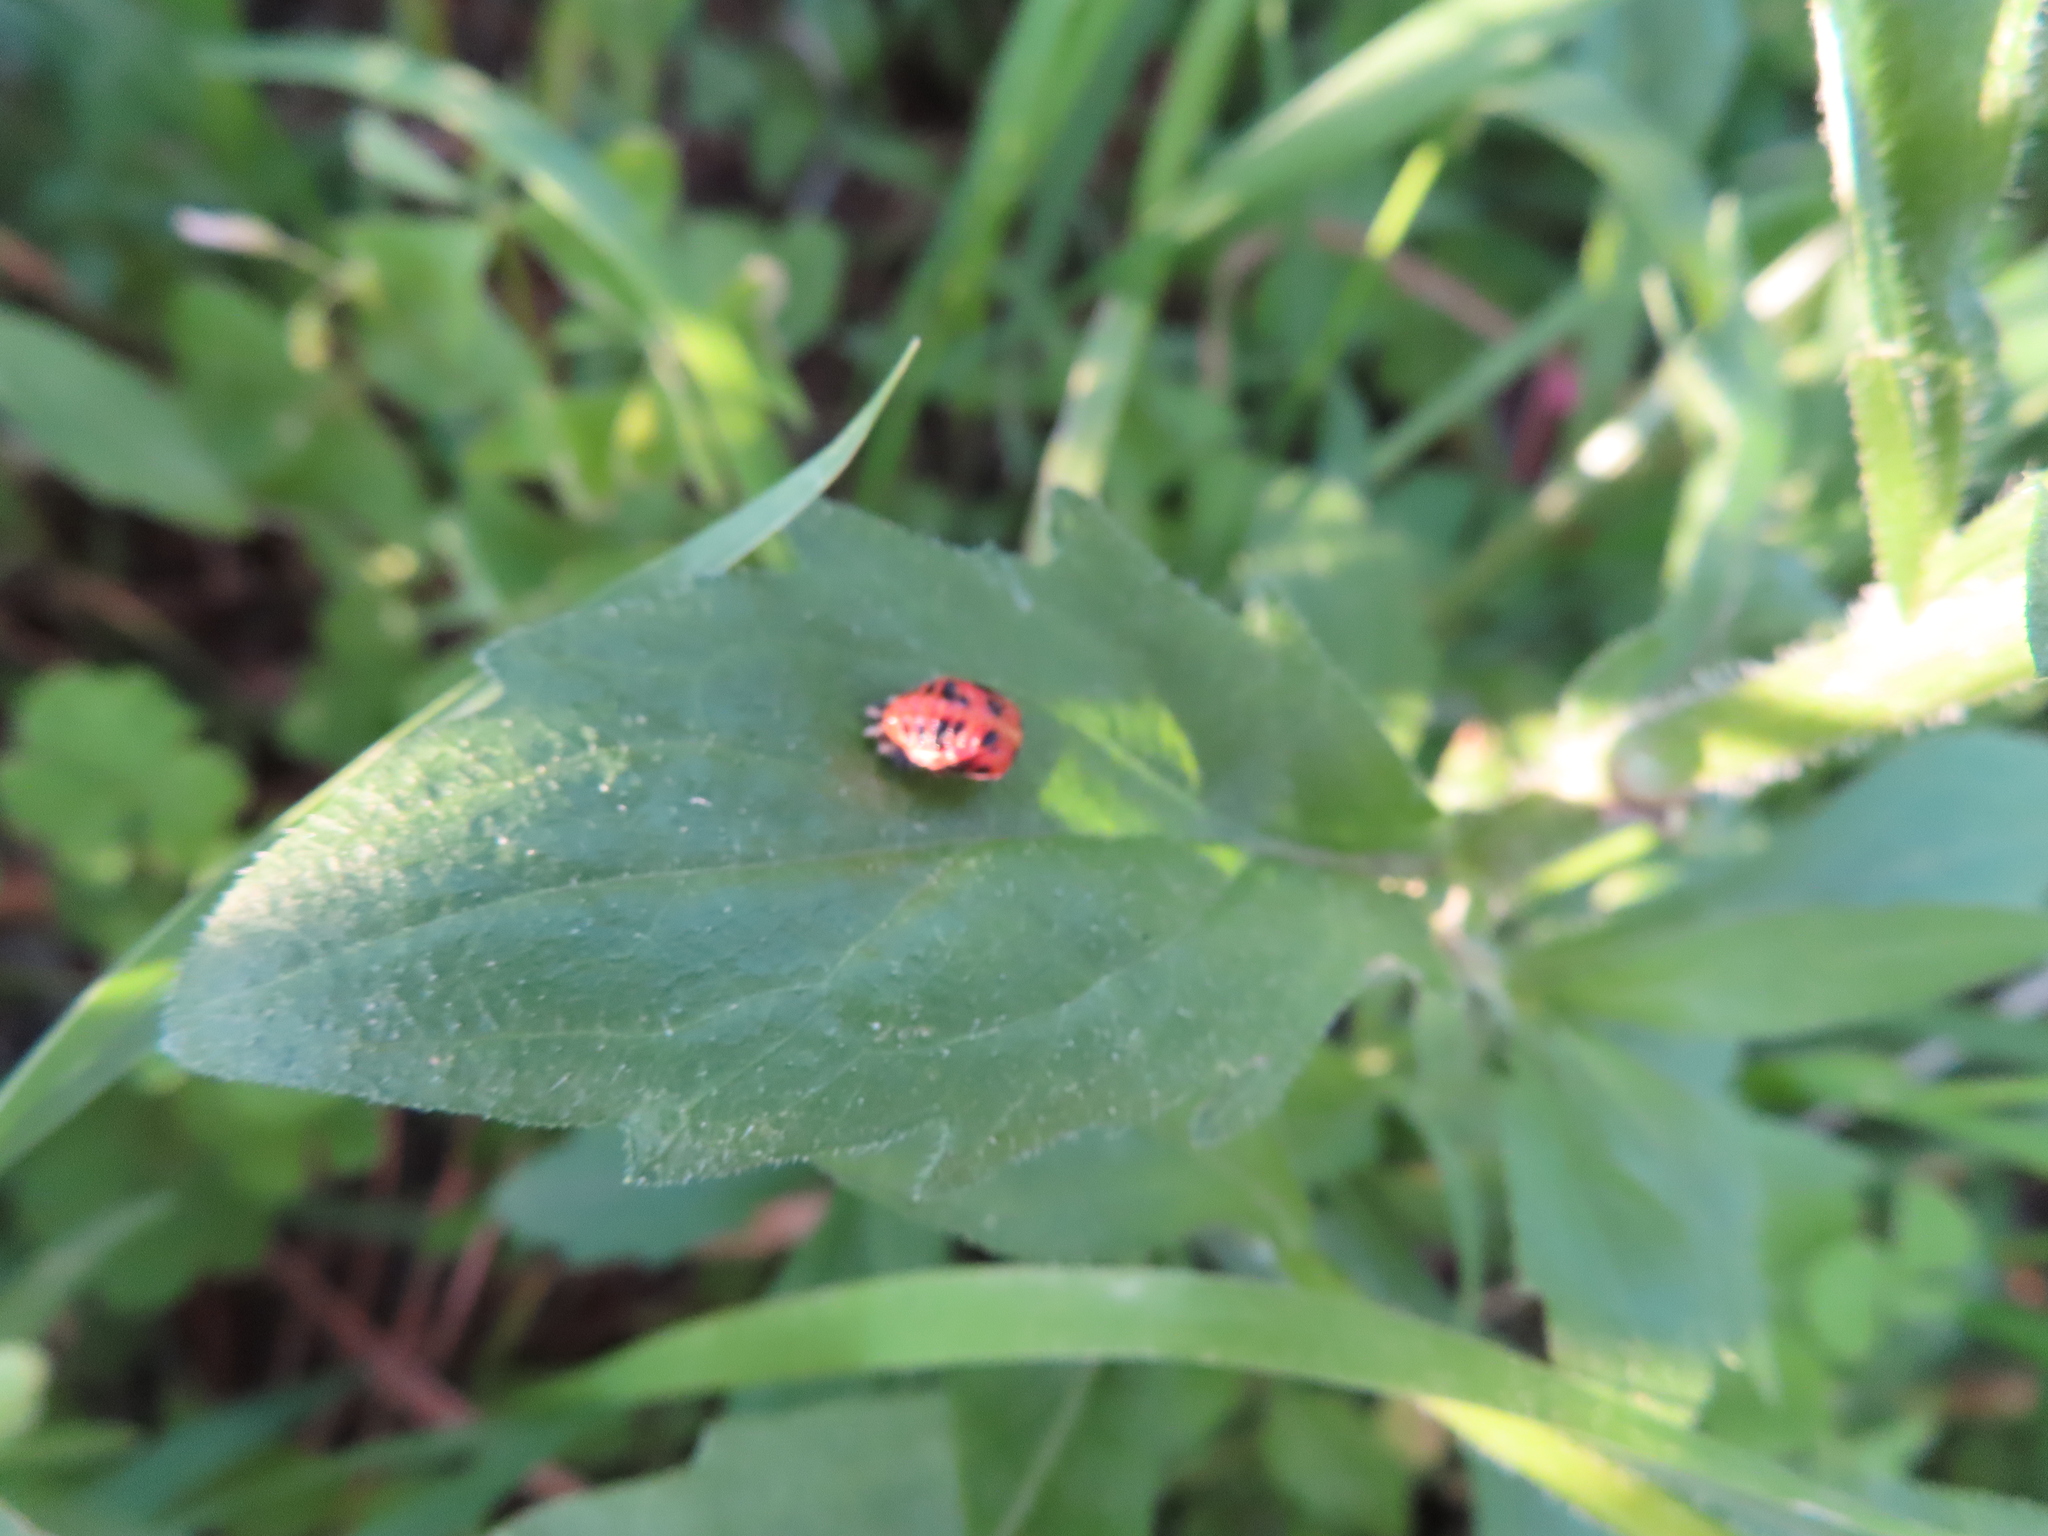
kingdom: Animalia
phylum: Arthropoda
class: Insecta
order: Coleoptera
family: Coccinellidae
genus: Harmonia
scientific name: Harmonia axyridis
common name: Harlequin ladybird
